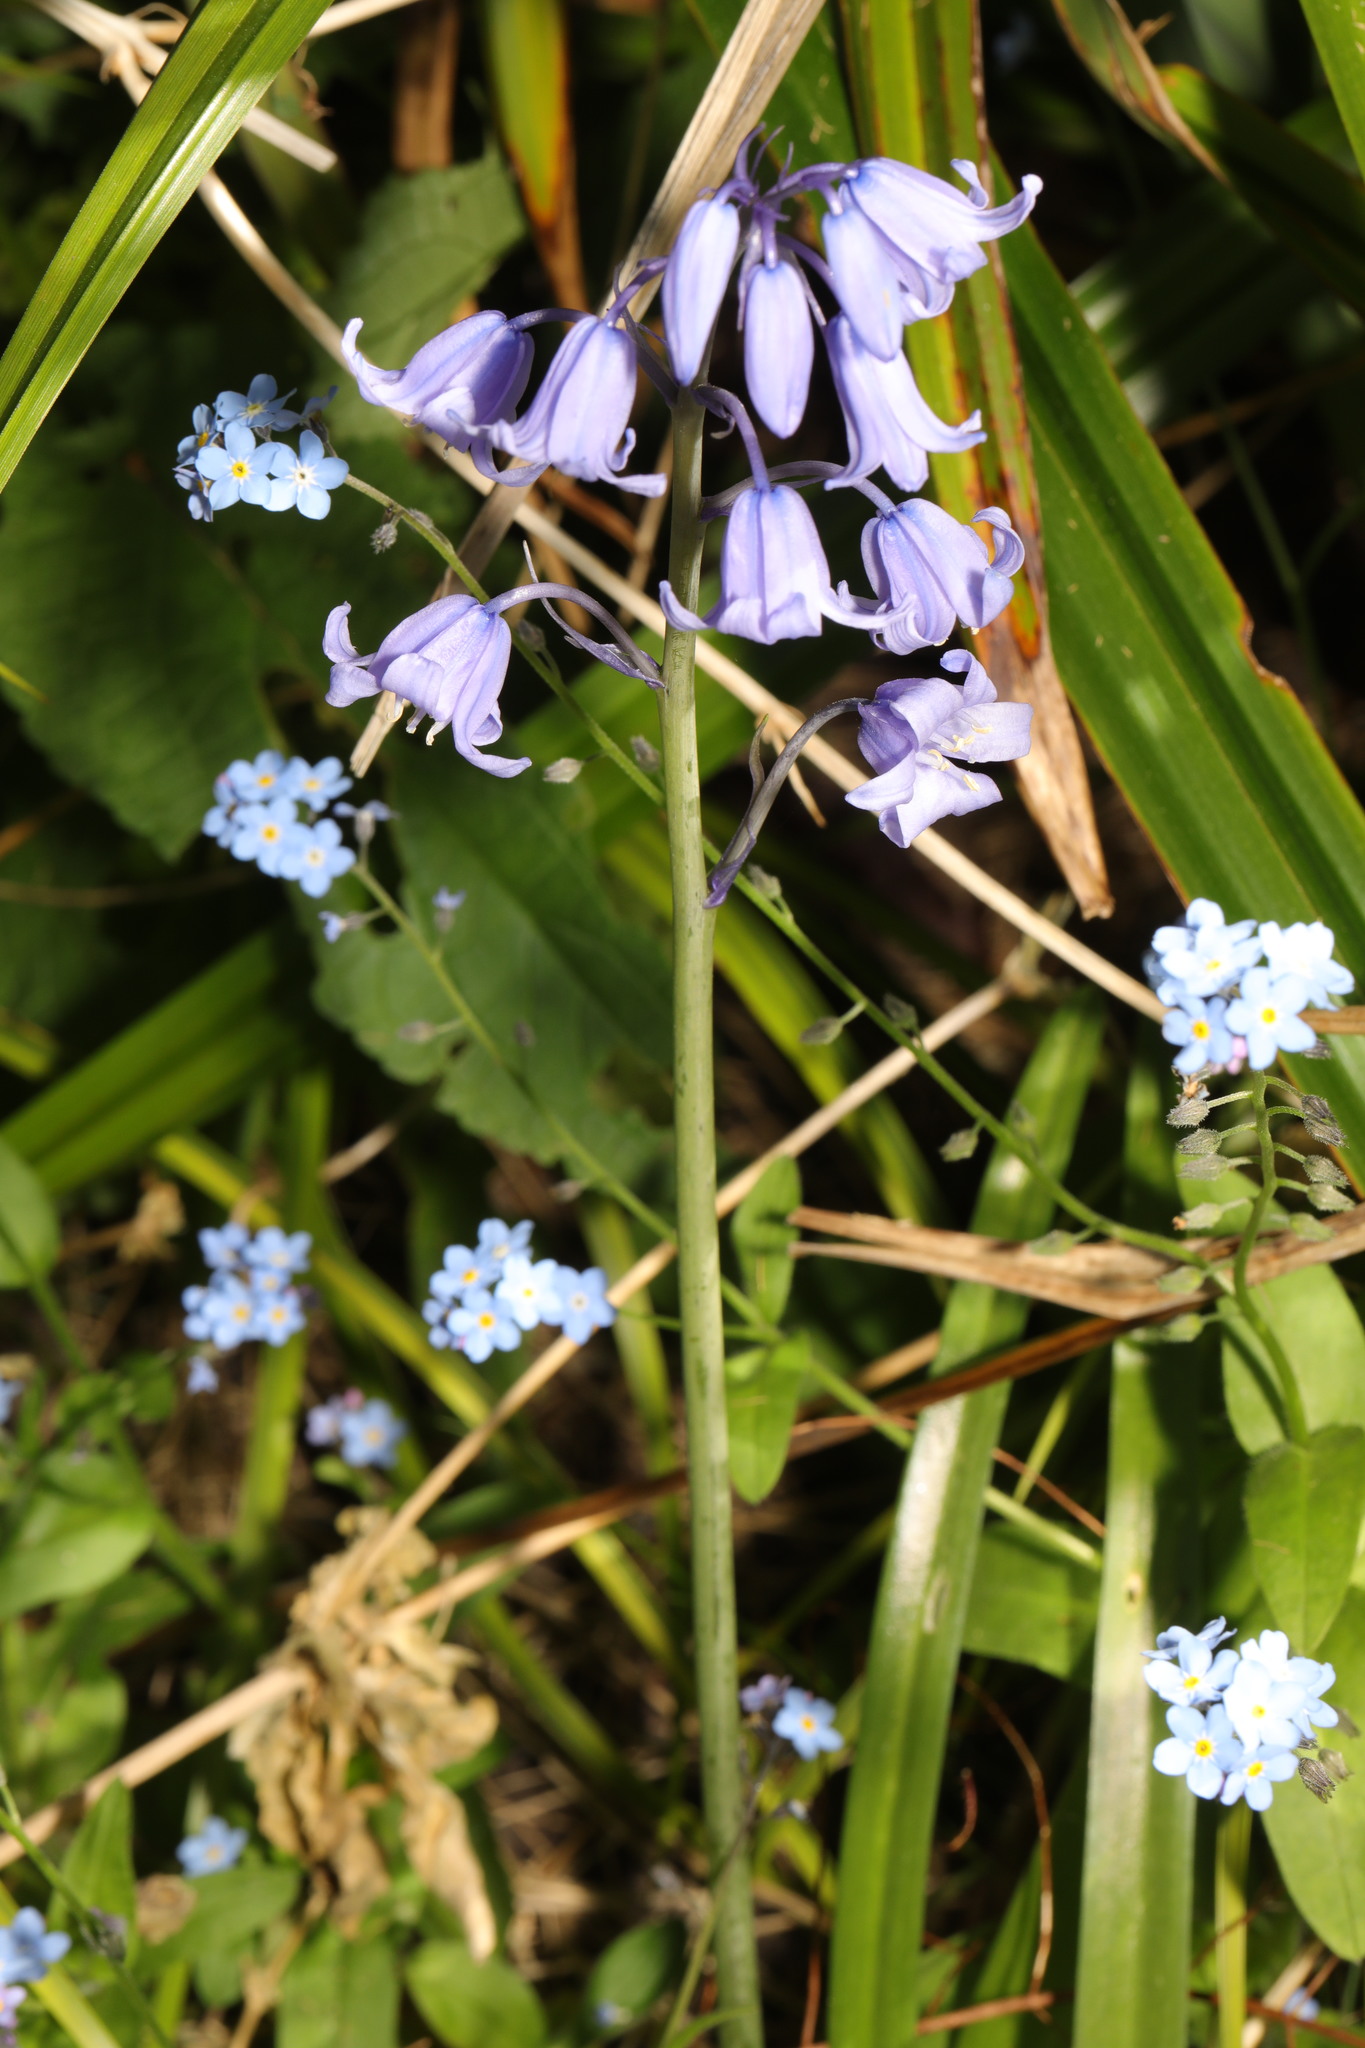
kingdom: Plantae
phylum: Tracheophyta
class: Liliopsida
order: Asparagales
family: Asparagaceae
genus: Hyacinthoides
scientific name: Hyacinthoides hispanica
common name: Spanish bluebell
